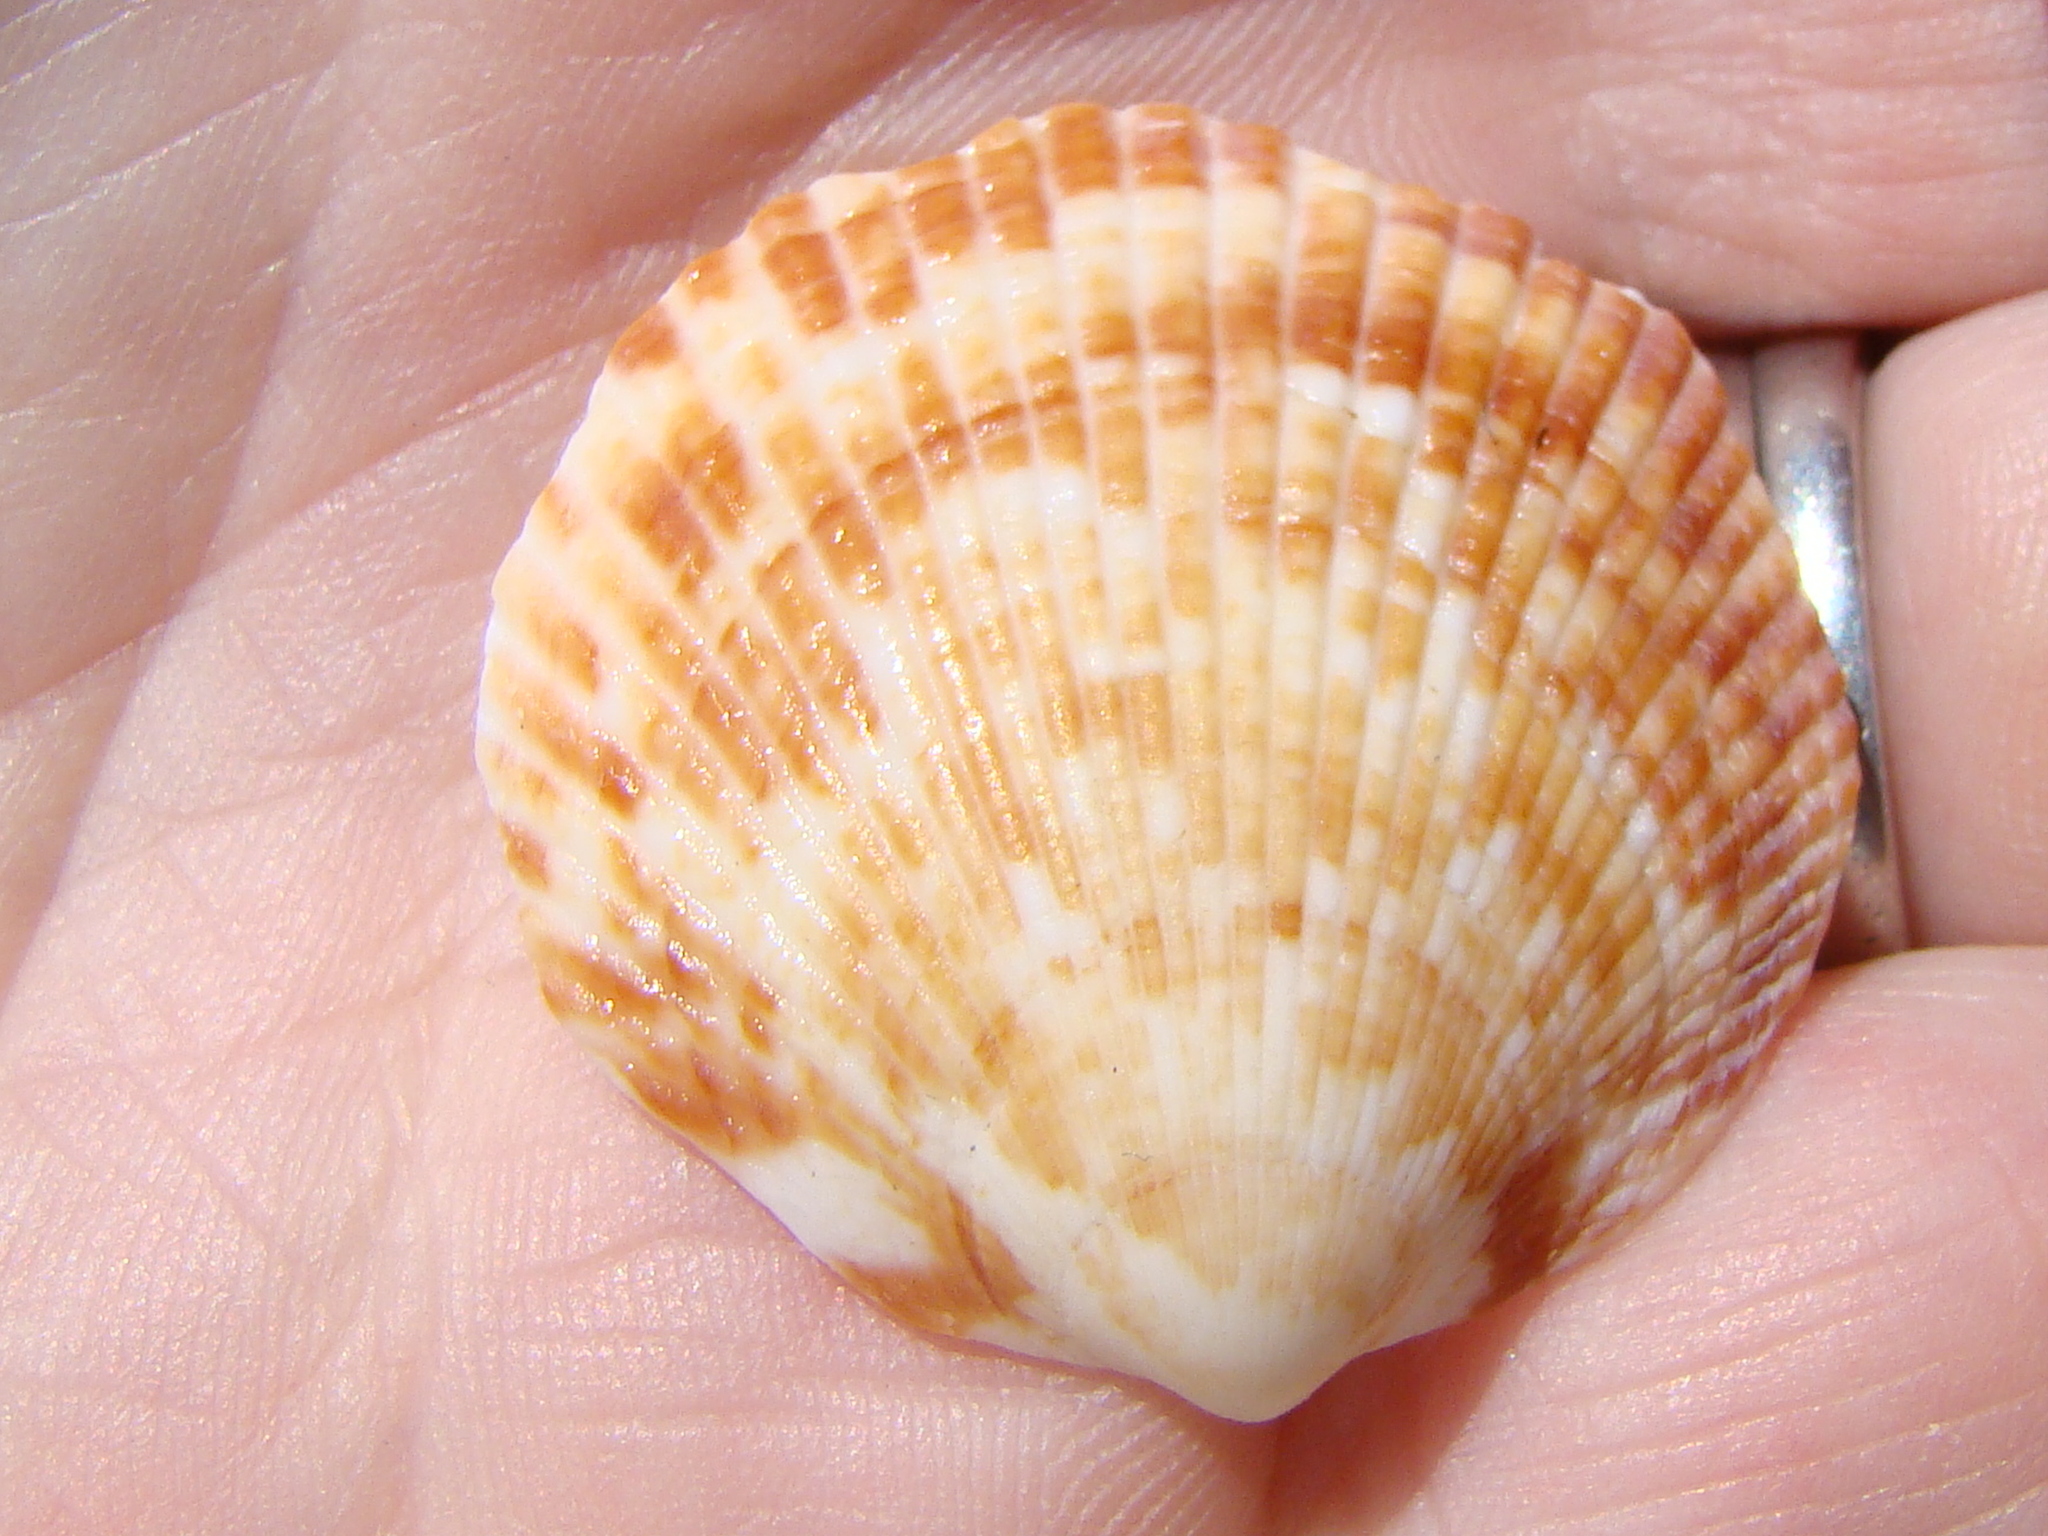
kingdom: Animalia
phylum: Mollusca
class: Bivalvia
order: Arcida
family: Glycymerididae
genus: Tucetona
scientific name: Tucetona laticostata
